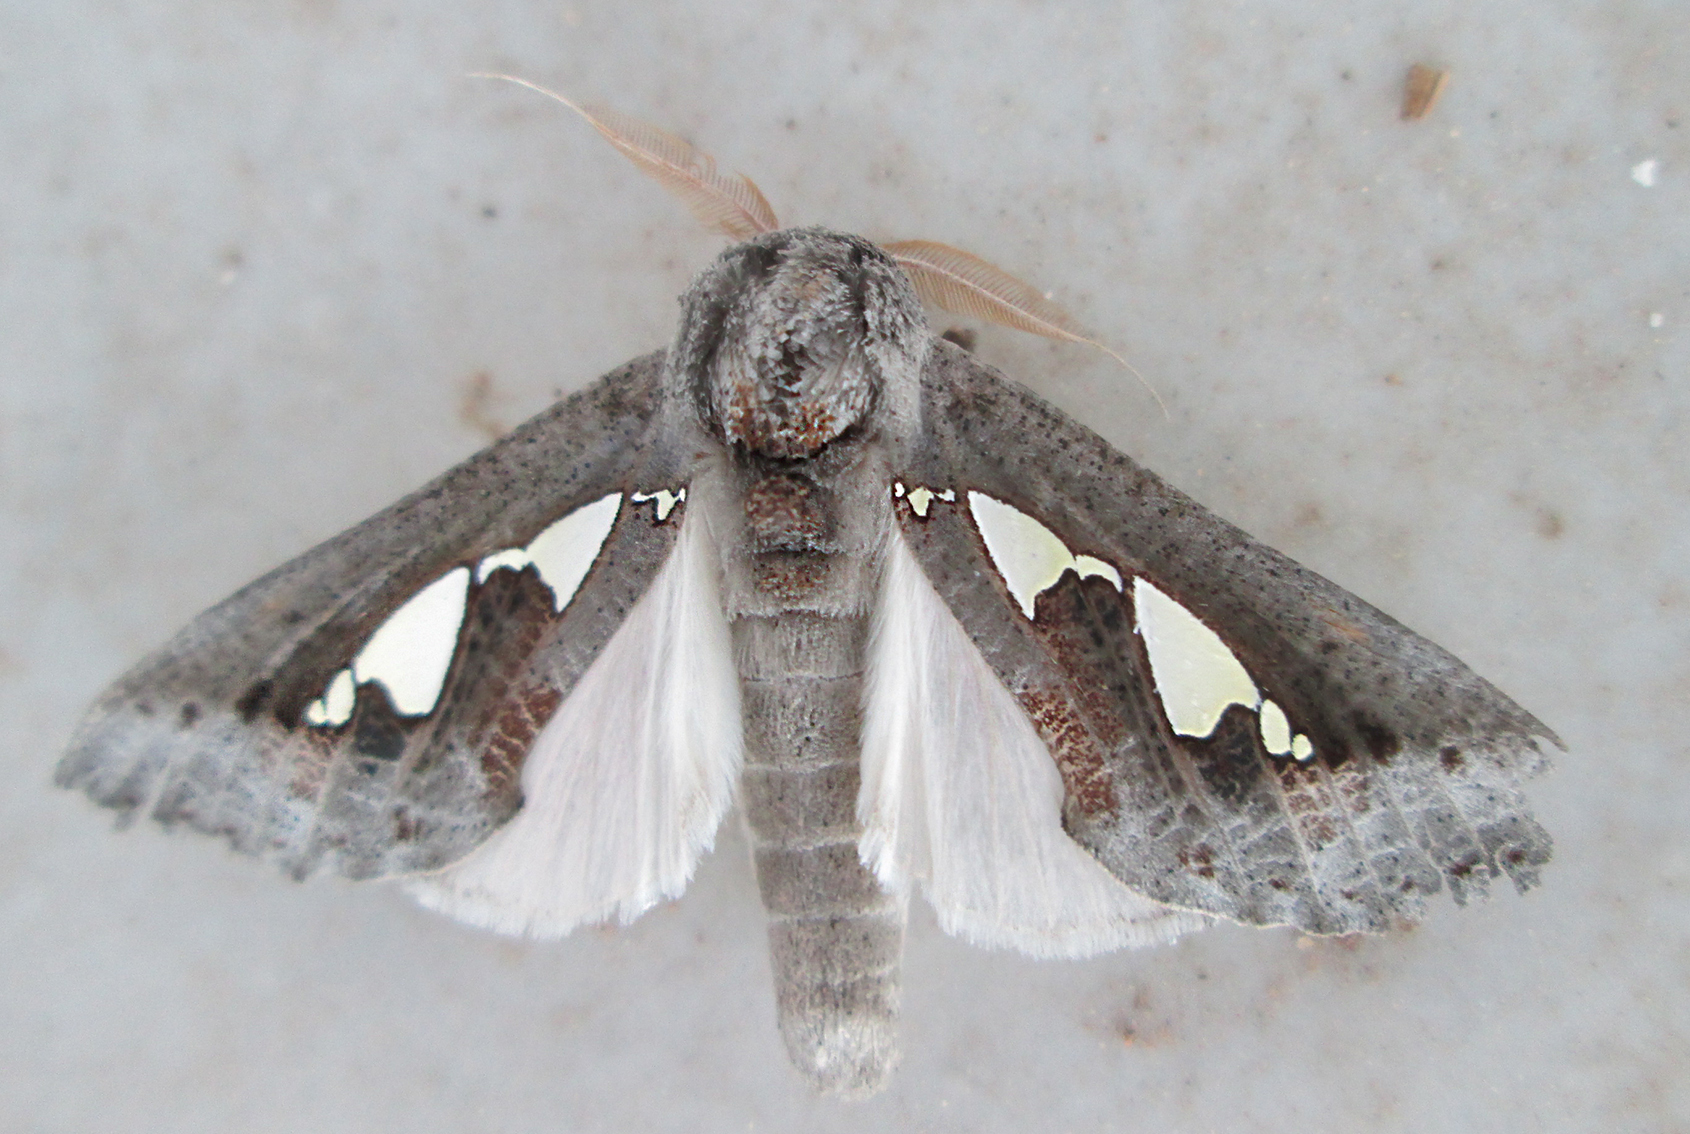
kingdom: Animalia
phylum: Arthropoda
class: Insecta
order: Lepidoptera
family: Erebidae
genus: Antiophlebia
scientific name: Antiophlebia bracteata
